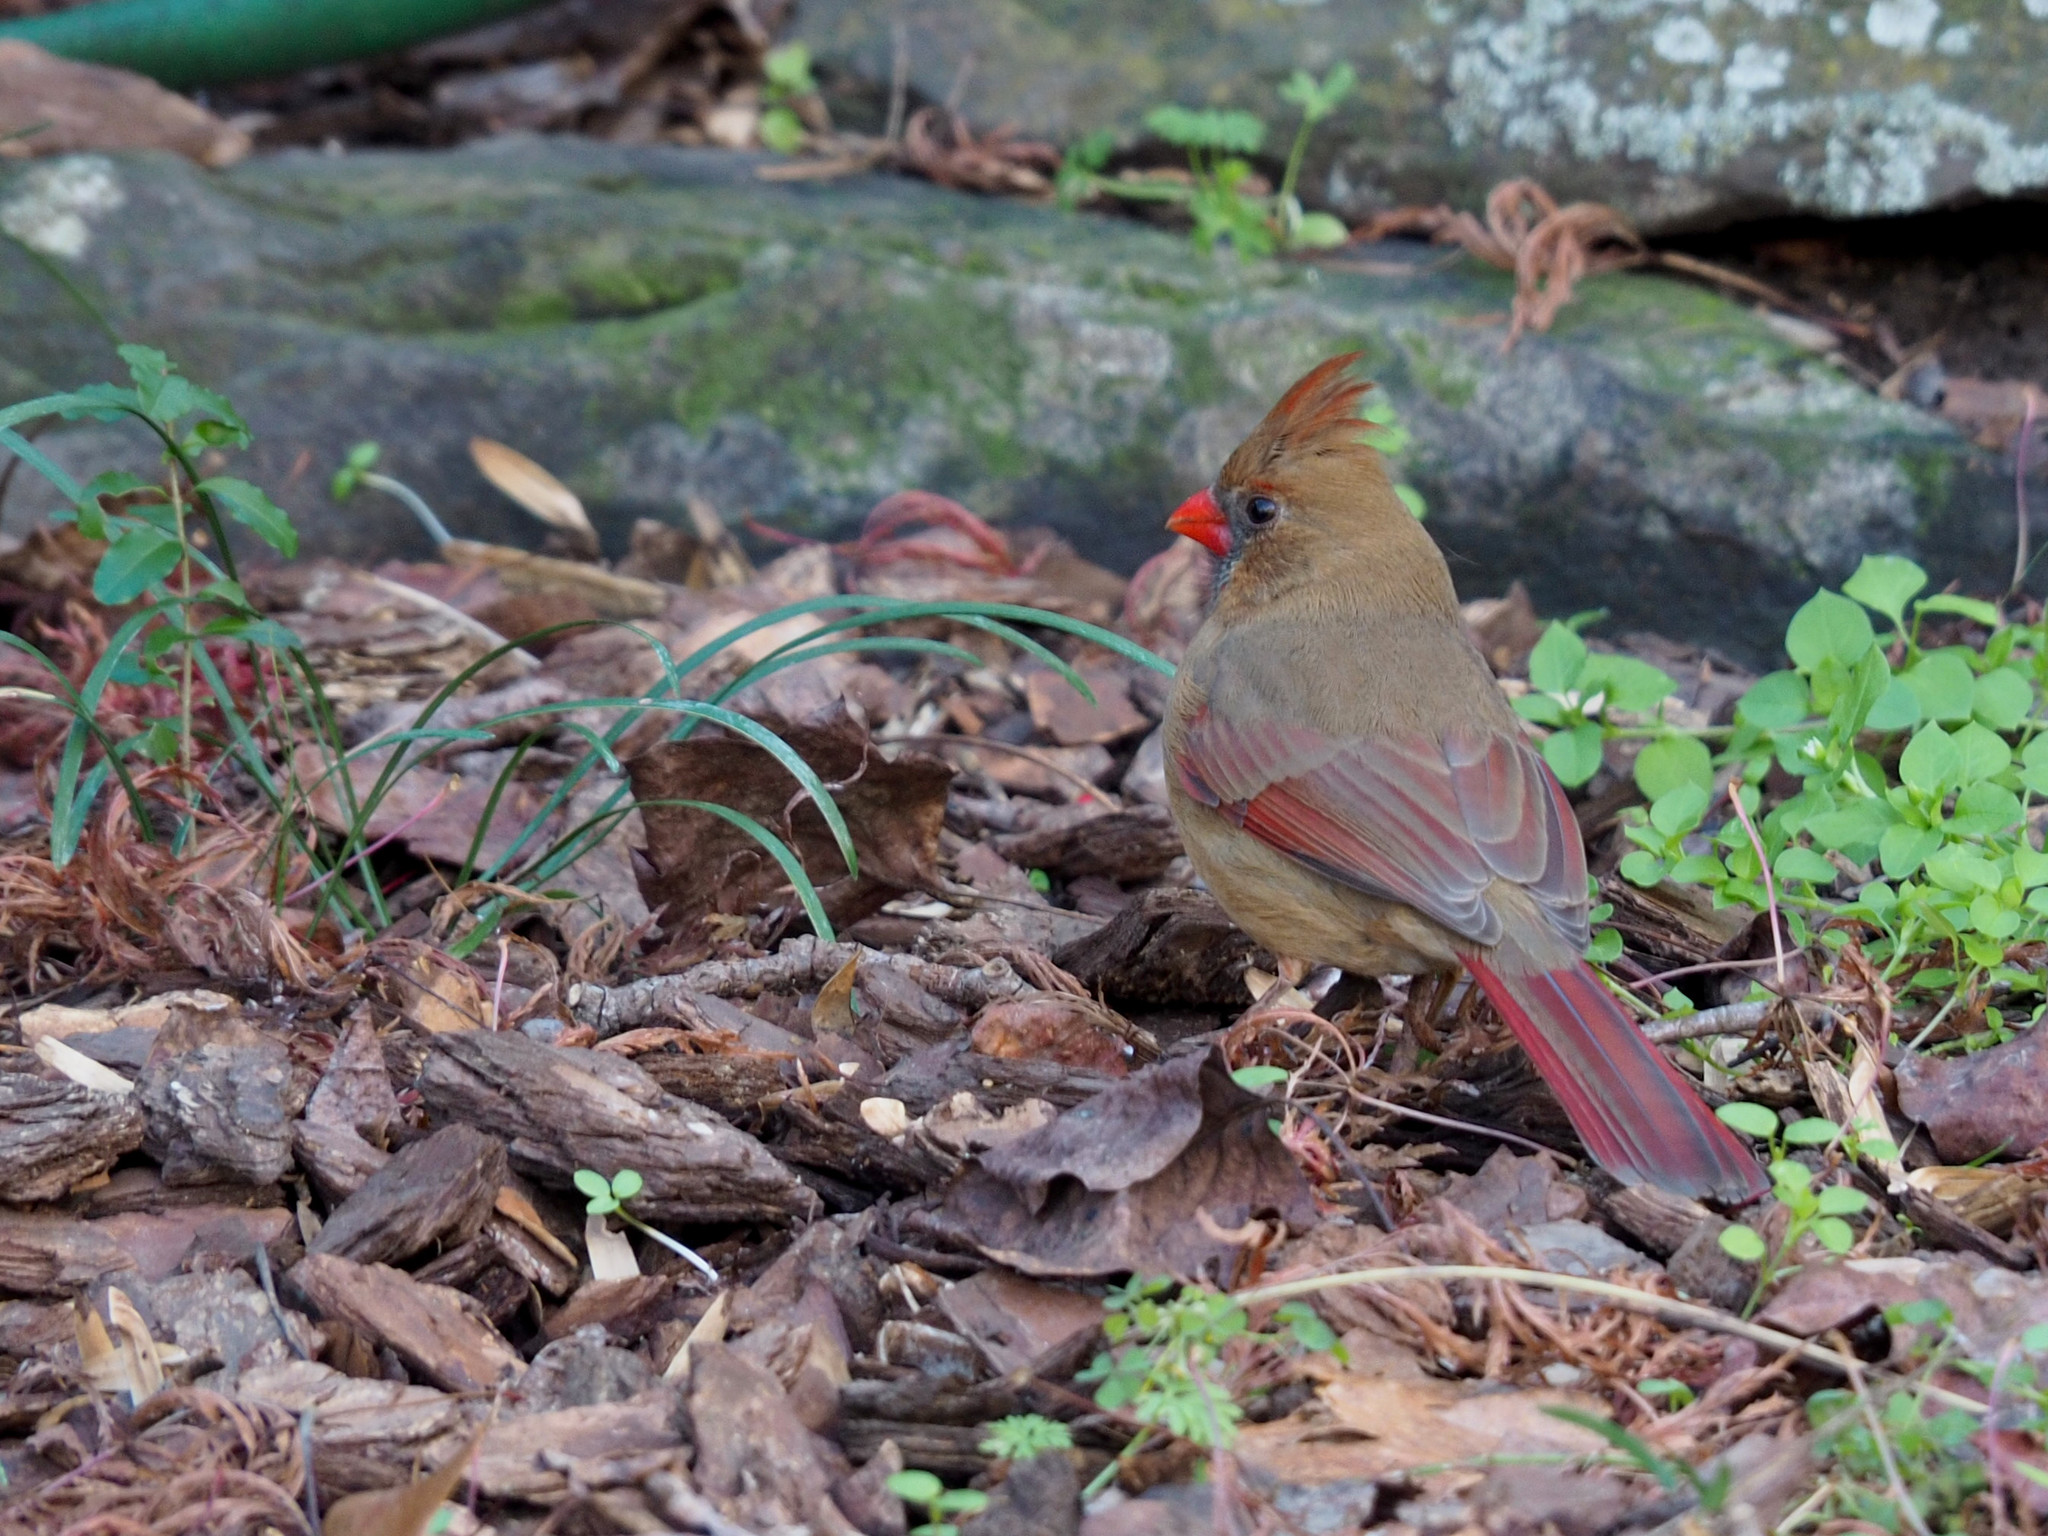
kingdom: Animalia
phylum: Chordata
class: Aves
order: Passeriformes
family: Cardinalidae
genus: Cardinalis
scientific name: Cardinalis cardinalis
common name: Northern cardinal
